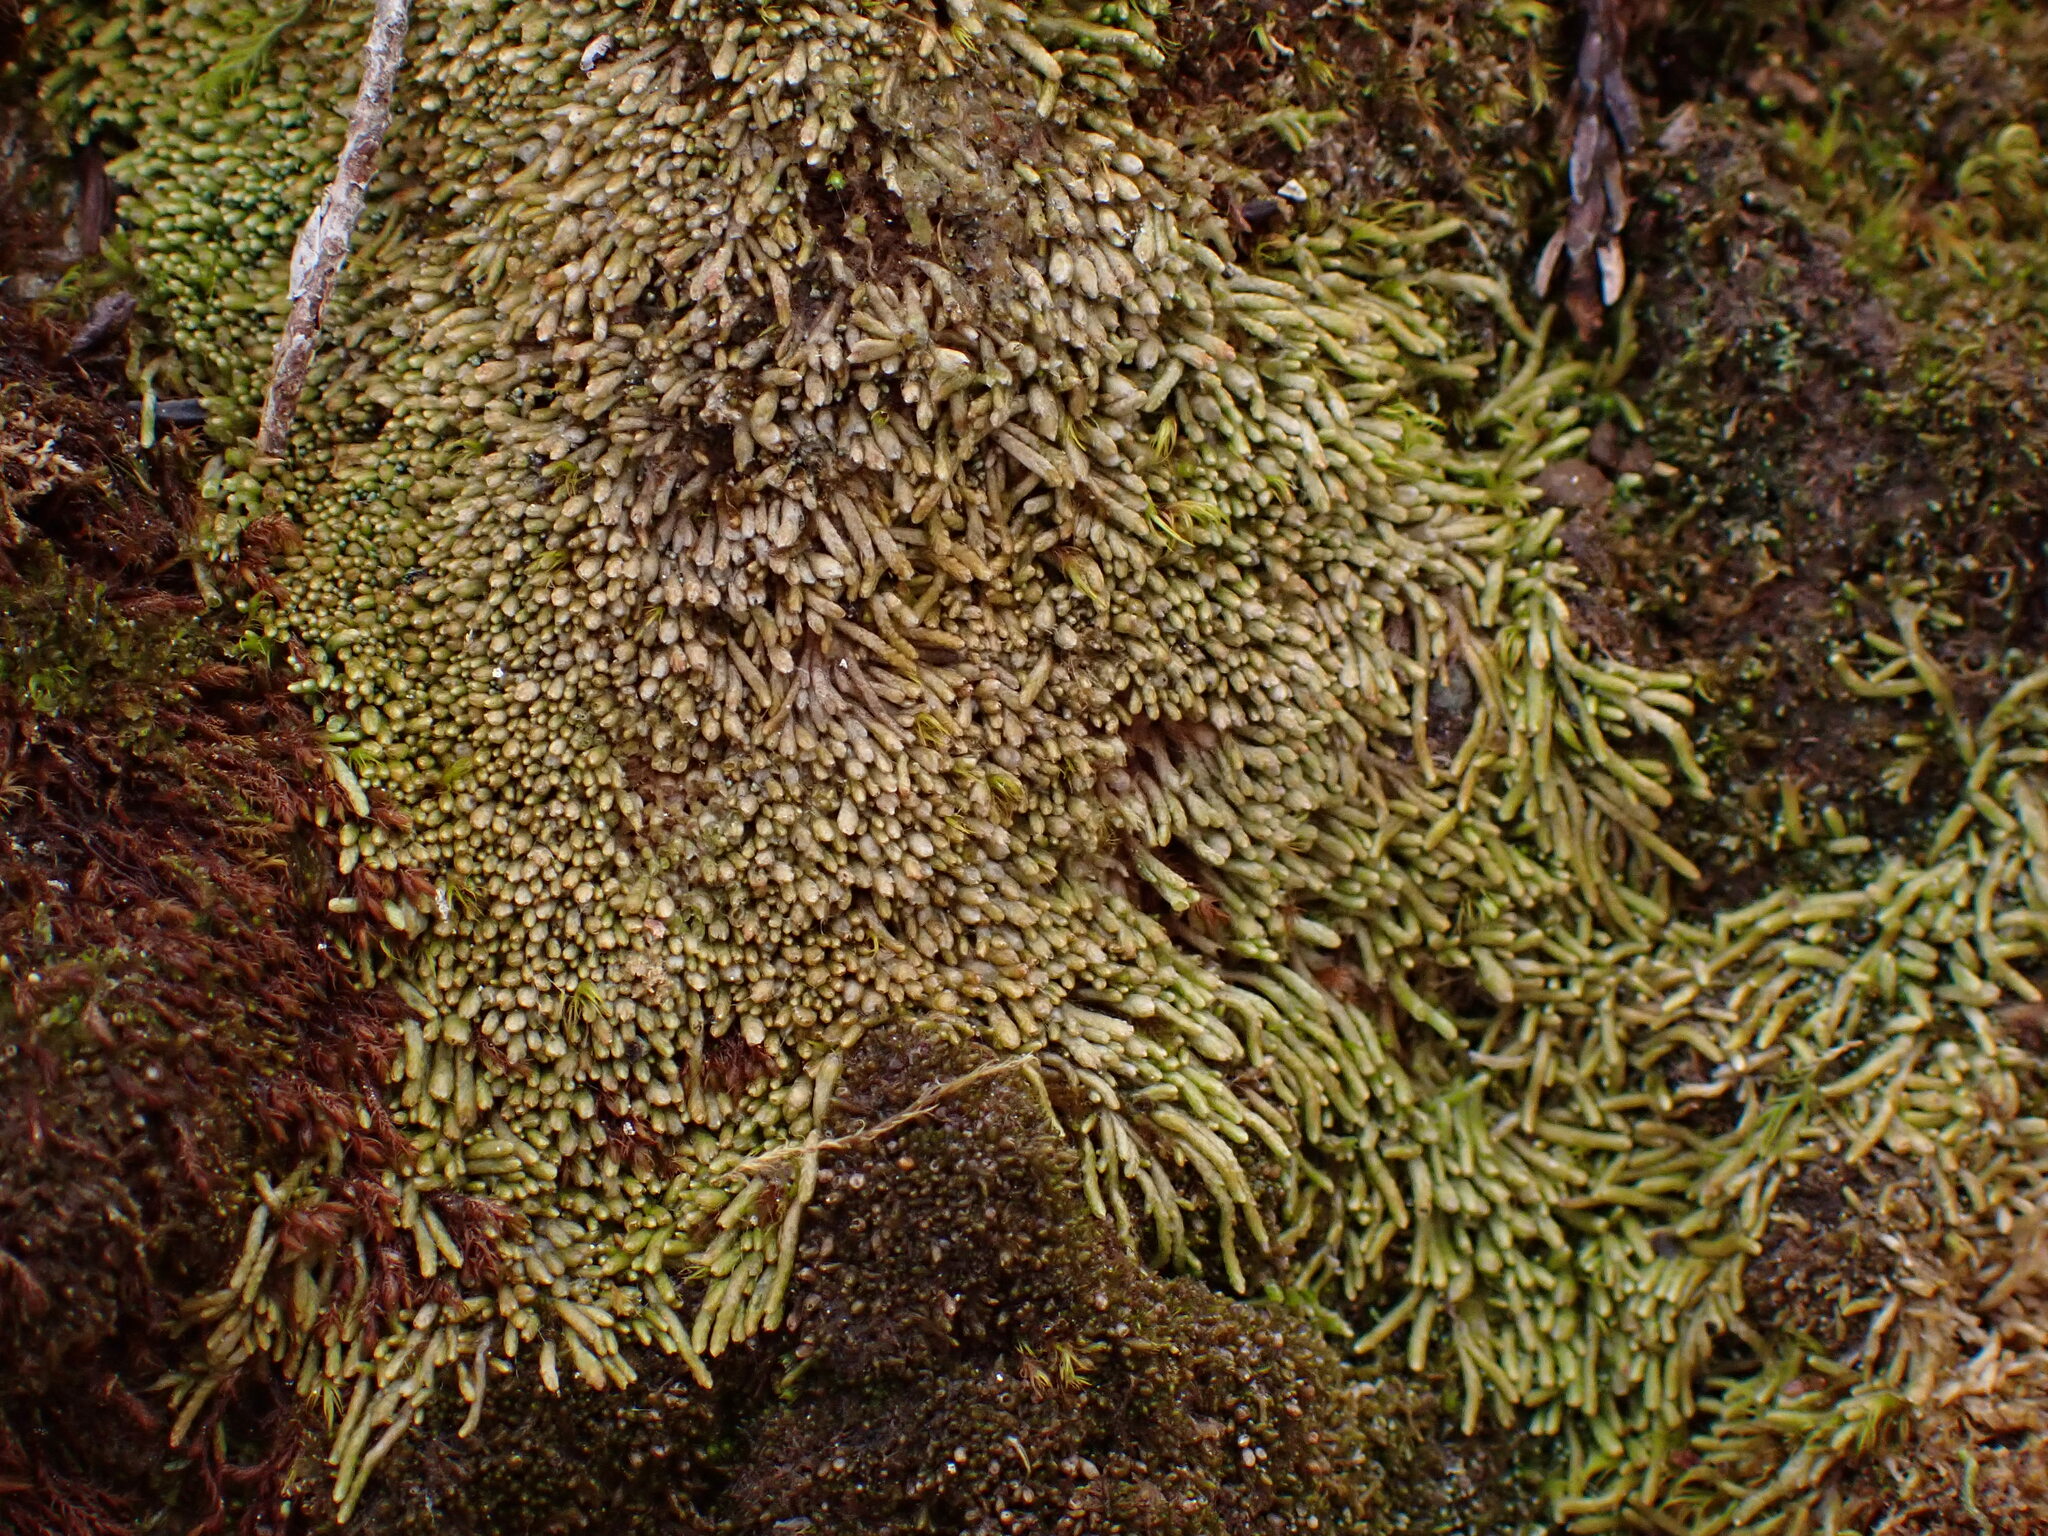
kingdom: Plantae
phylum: Marchantiophyta
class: Jungermanniopsida
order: Jungermanniales
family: Gymnomitriaceae
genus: Gymnomitrion
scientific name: Gymnomitrion obtusum
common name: White frostwort
